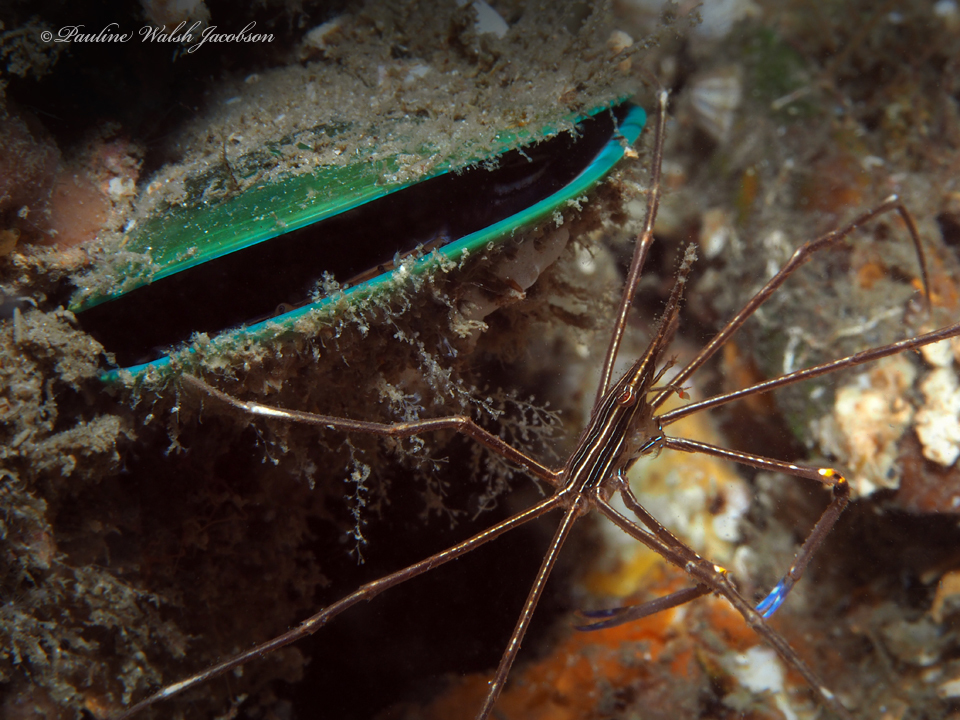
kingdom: Animalia
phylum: Mollusca
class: Bivalvia
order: Mytilida
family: Mytilidae
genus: Perna
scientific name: Perna viridis
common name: Green mussel
